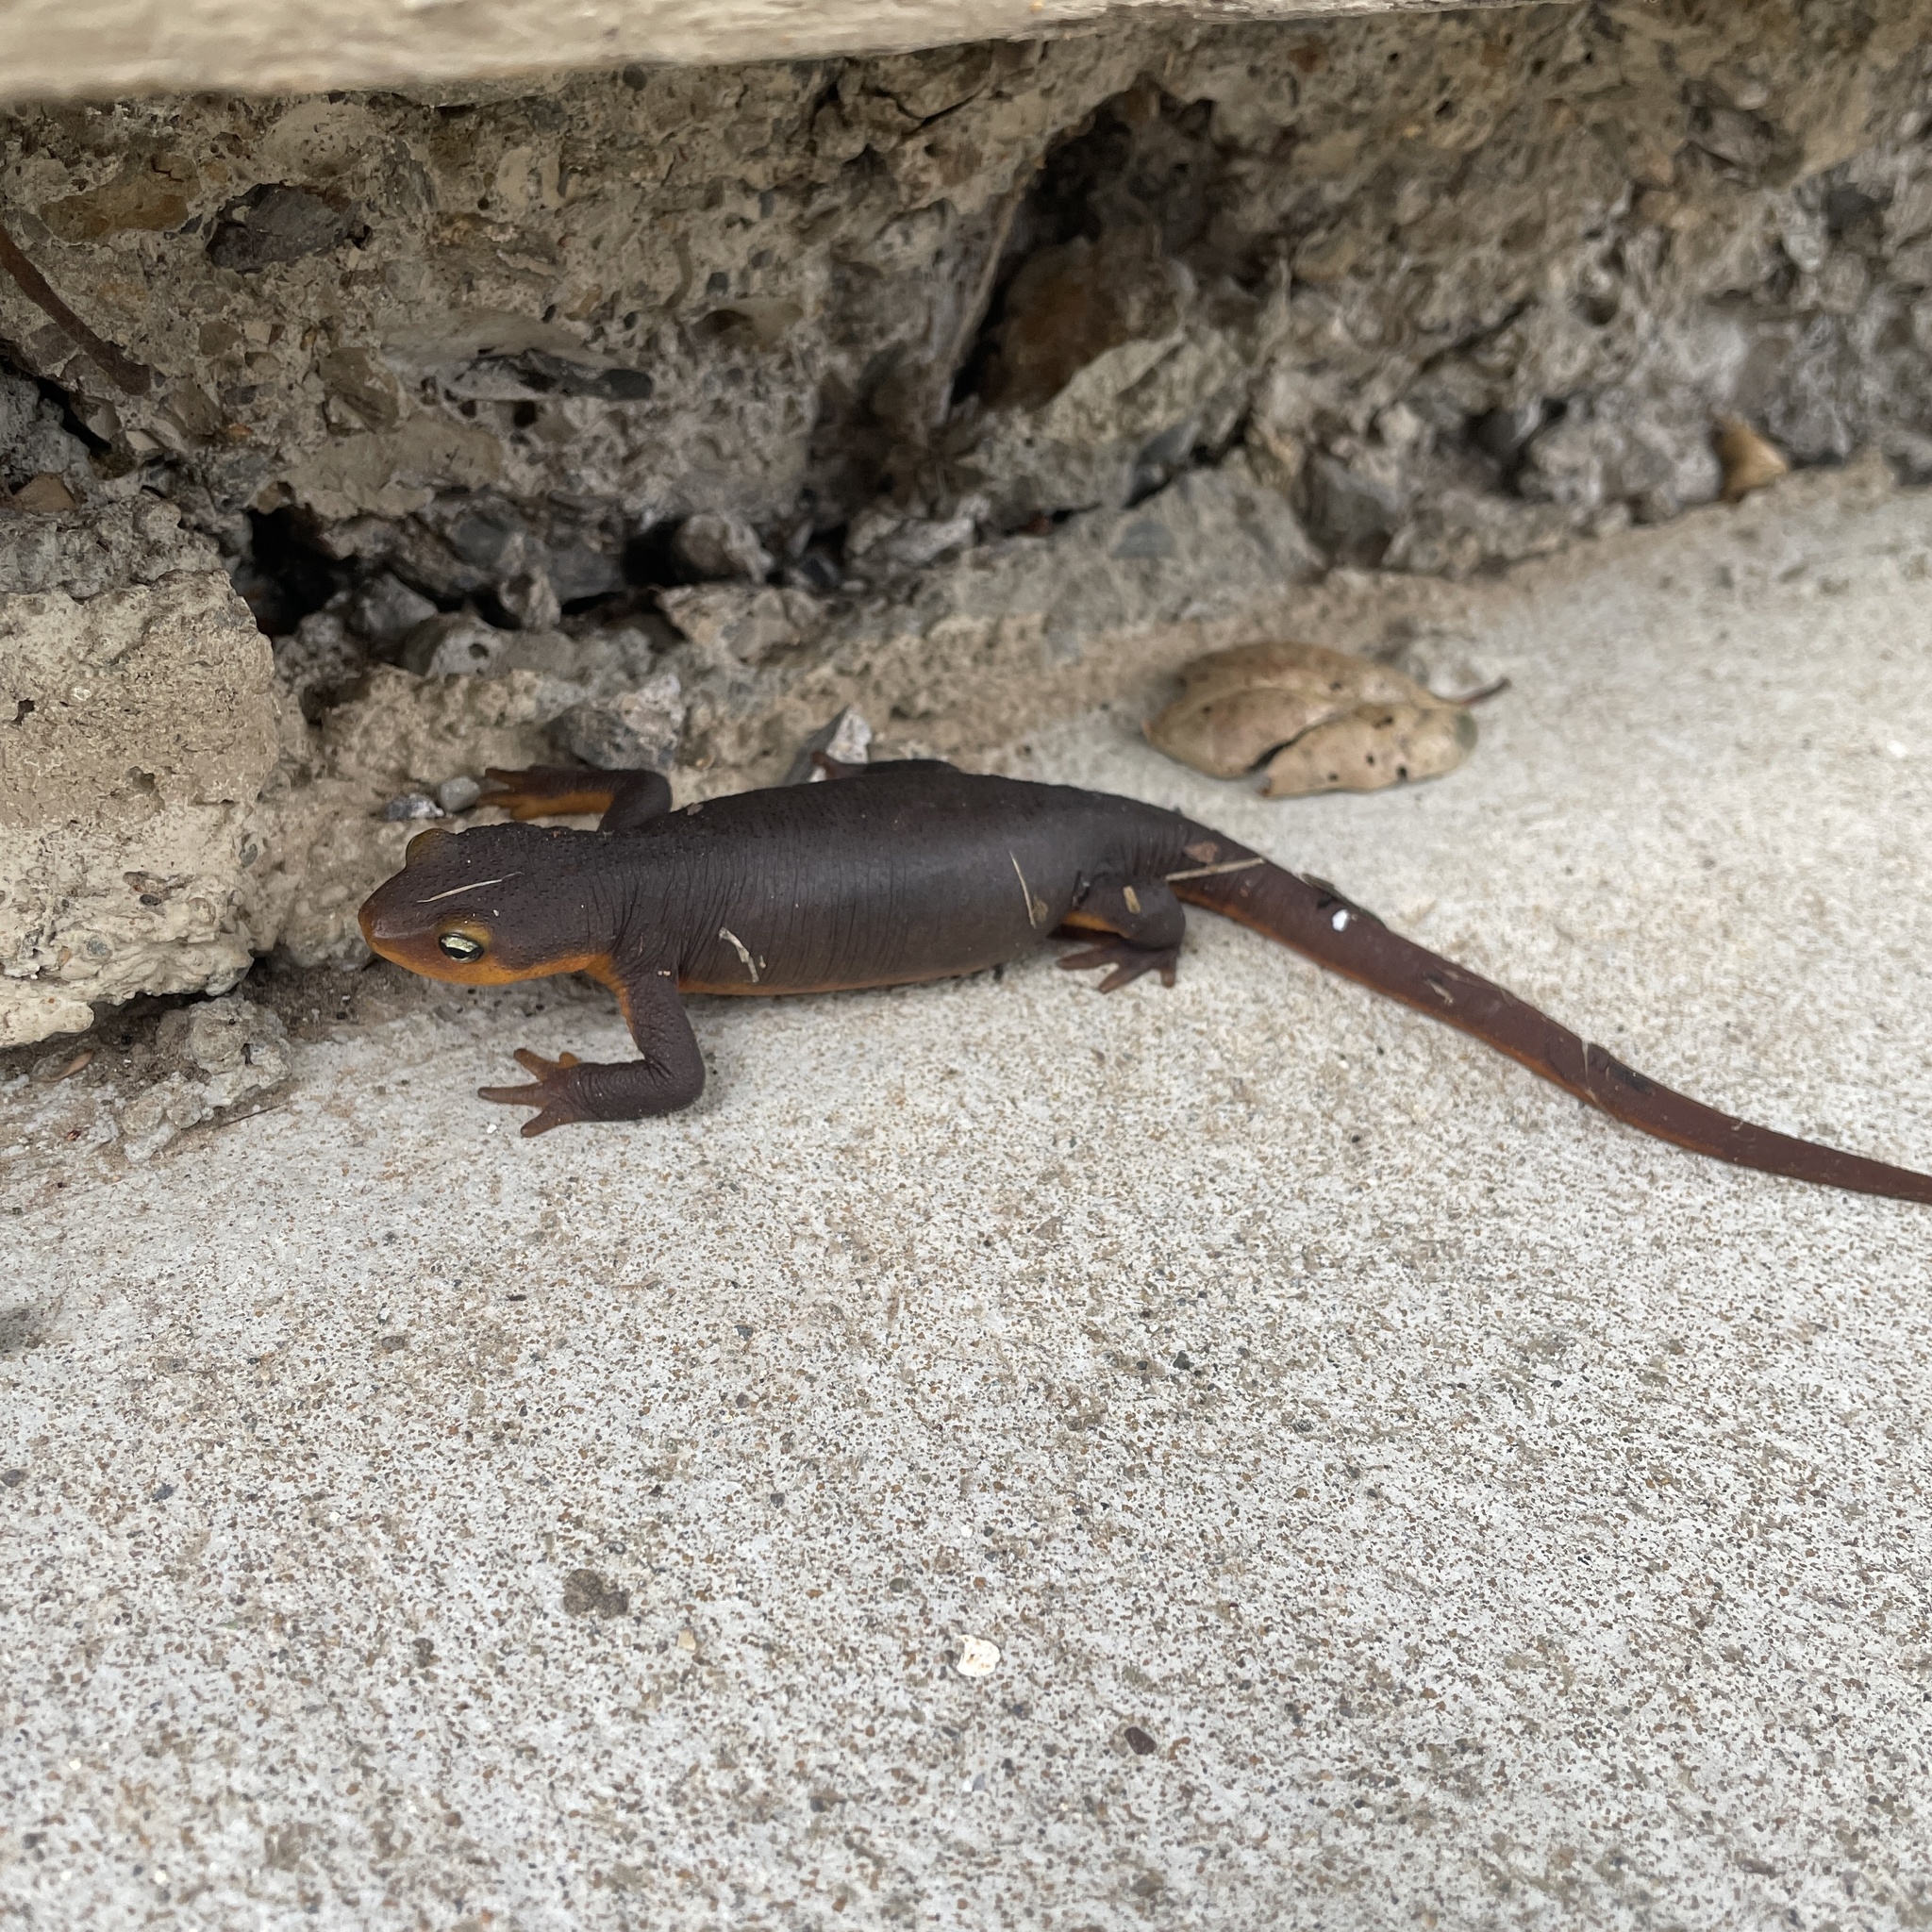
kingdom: Animalia
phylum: Chordata
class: Amphibia
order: Caudata
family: Salamandridae
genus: Taricha
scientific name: Taricha torosa
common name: California newt
